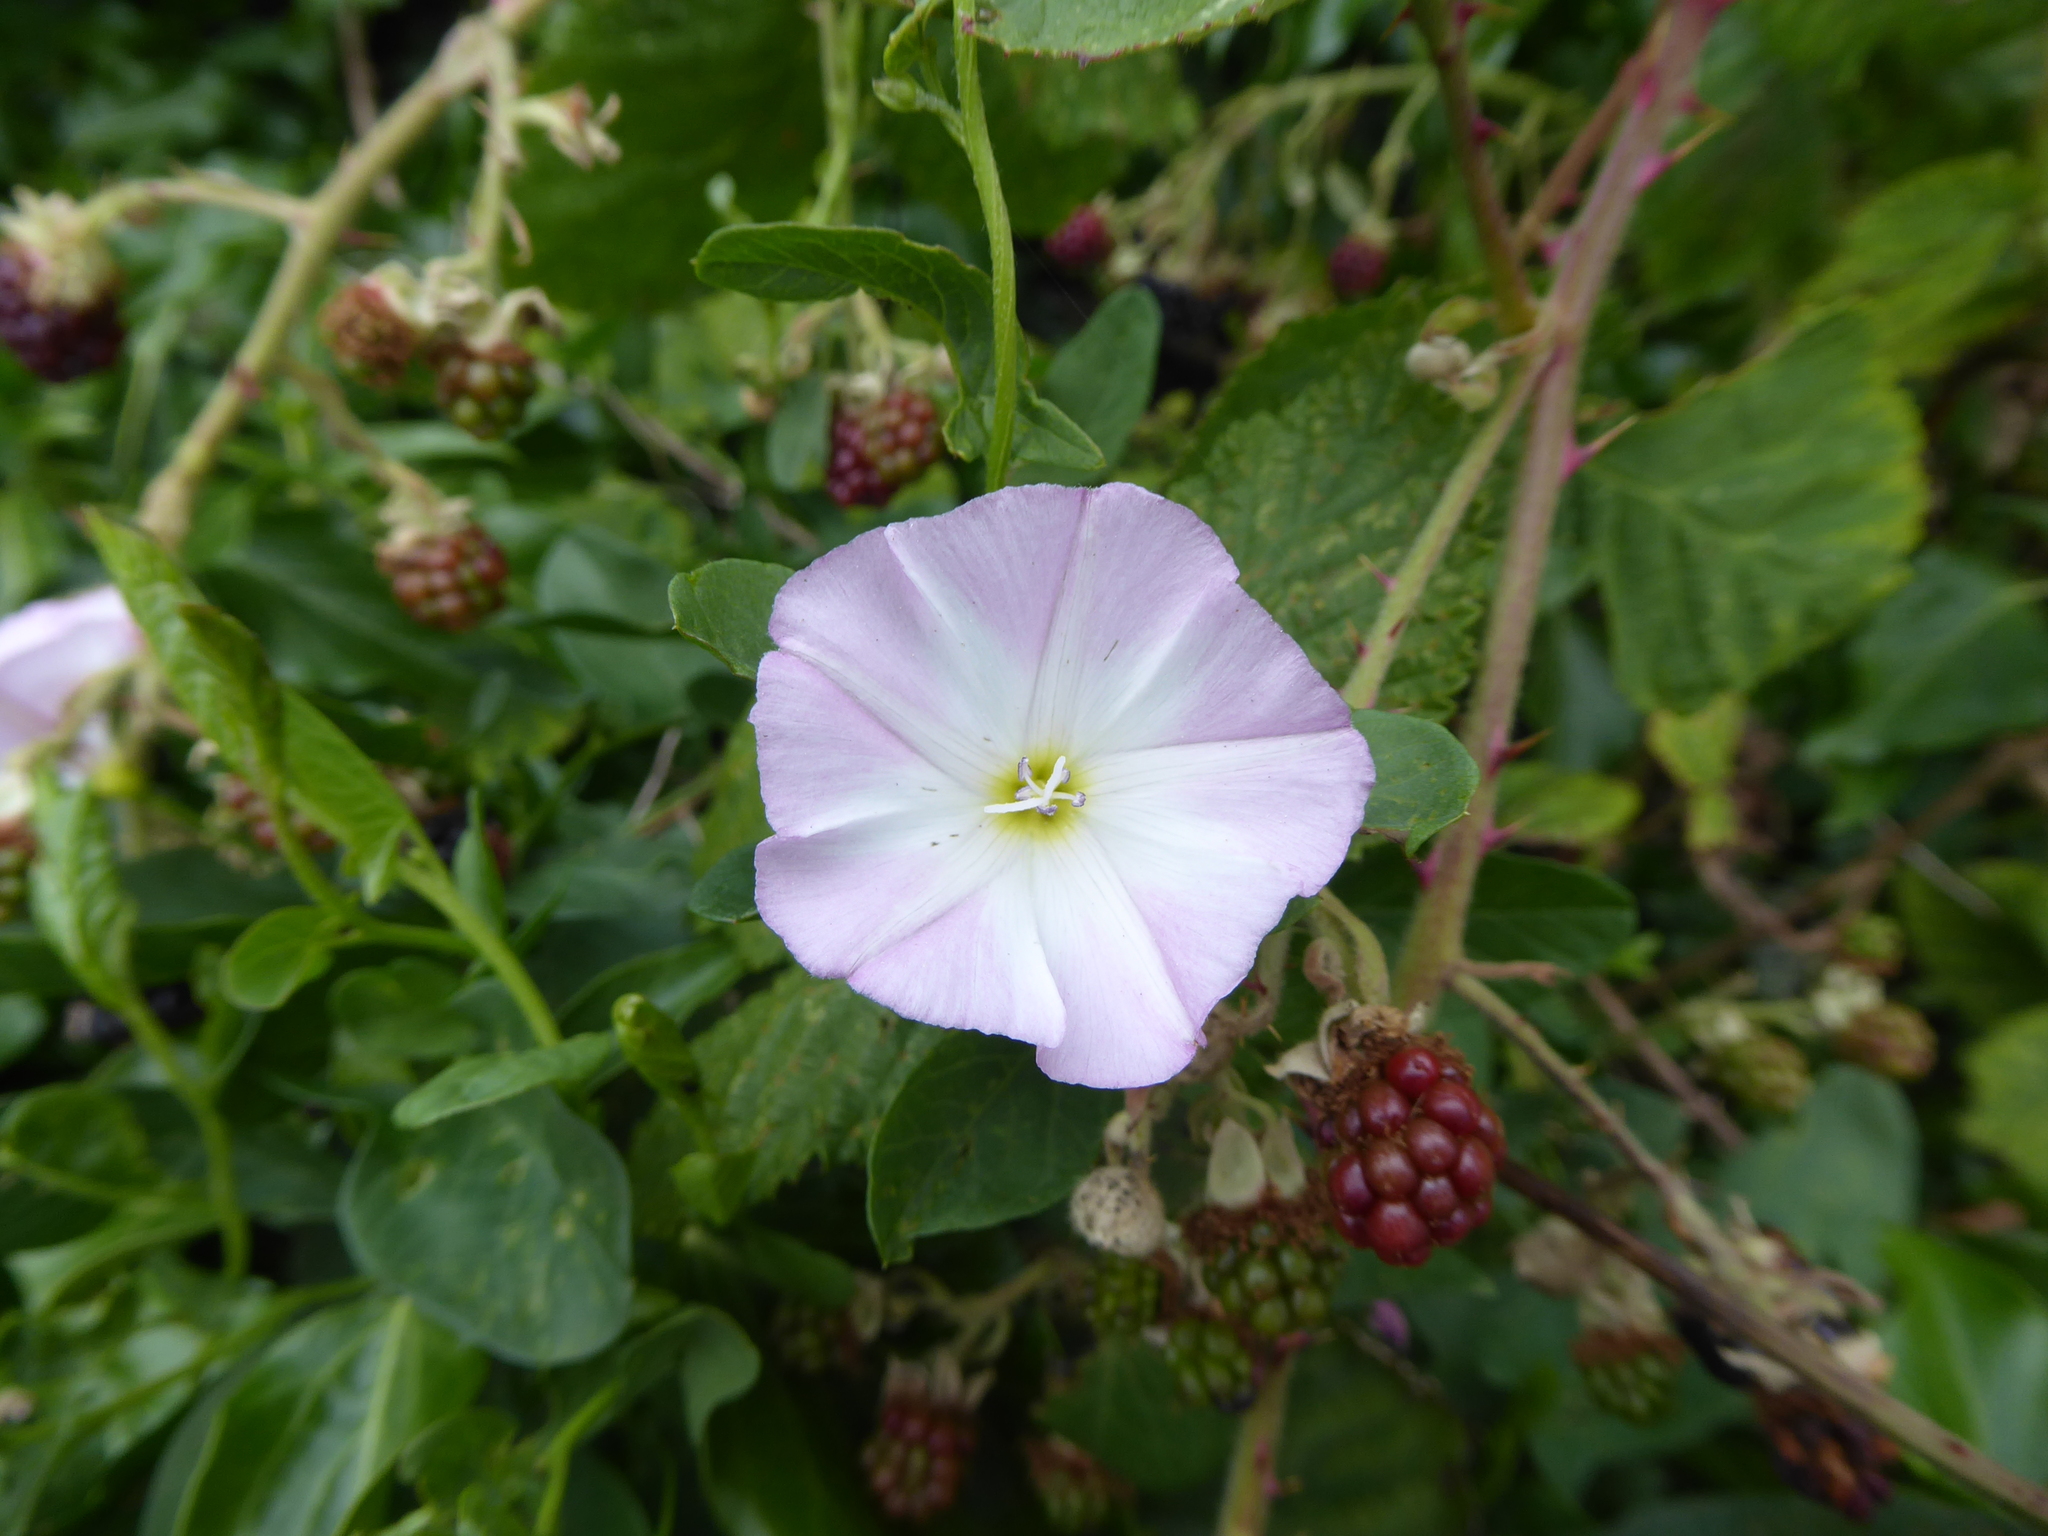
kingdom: Plantae
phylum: Tracheophyta
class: Magnoliopsida
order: Solanales
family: Convolvulaceae
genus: Convolvulus
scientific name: Convolvulus arvensis
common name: Field bindweed
